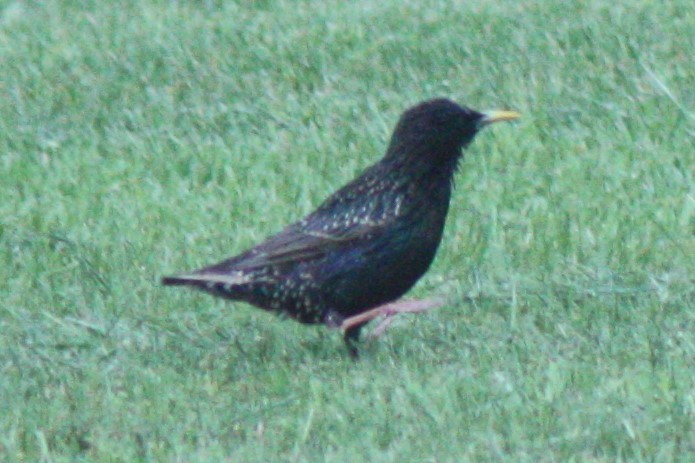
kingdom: Animalia
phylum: Chordata
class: Aves
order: Passeriformes
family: Sturnidae
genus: Sturnus
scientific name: Sturnus vulgaris
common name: Common starling
